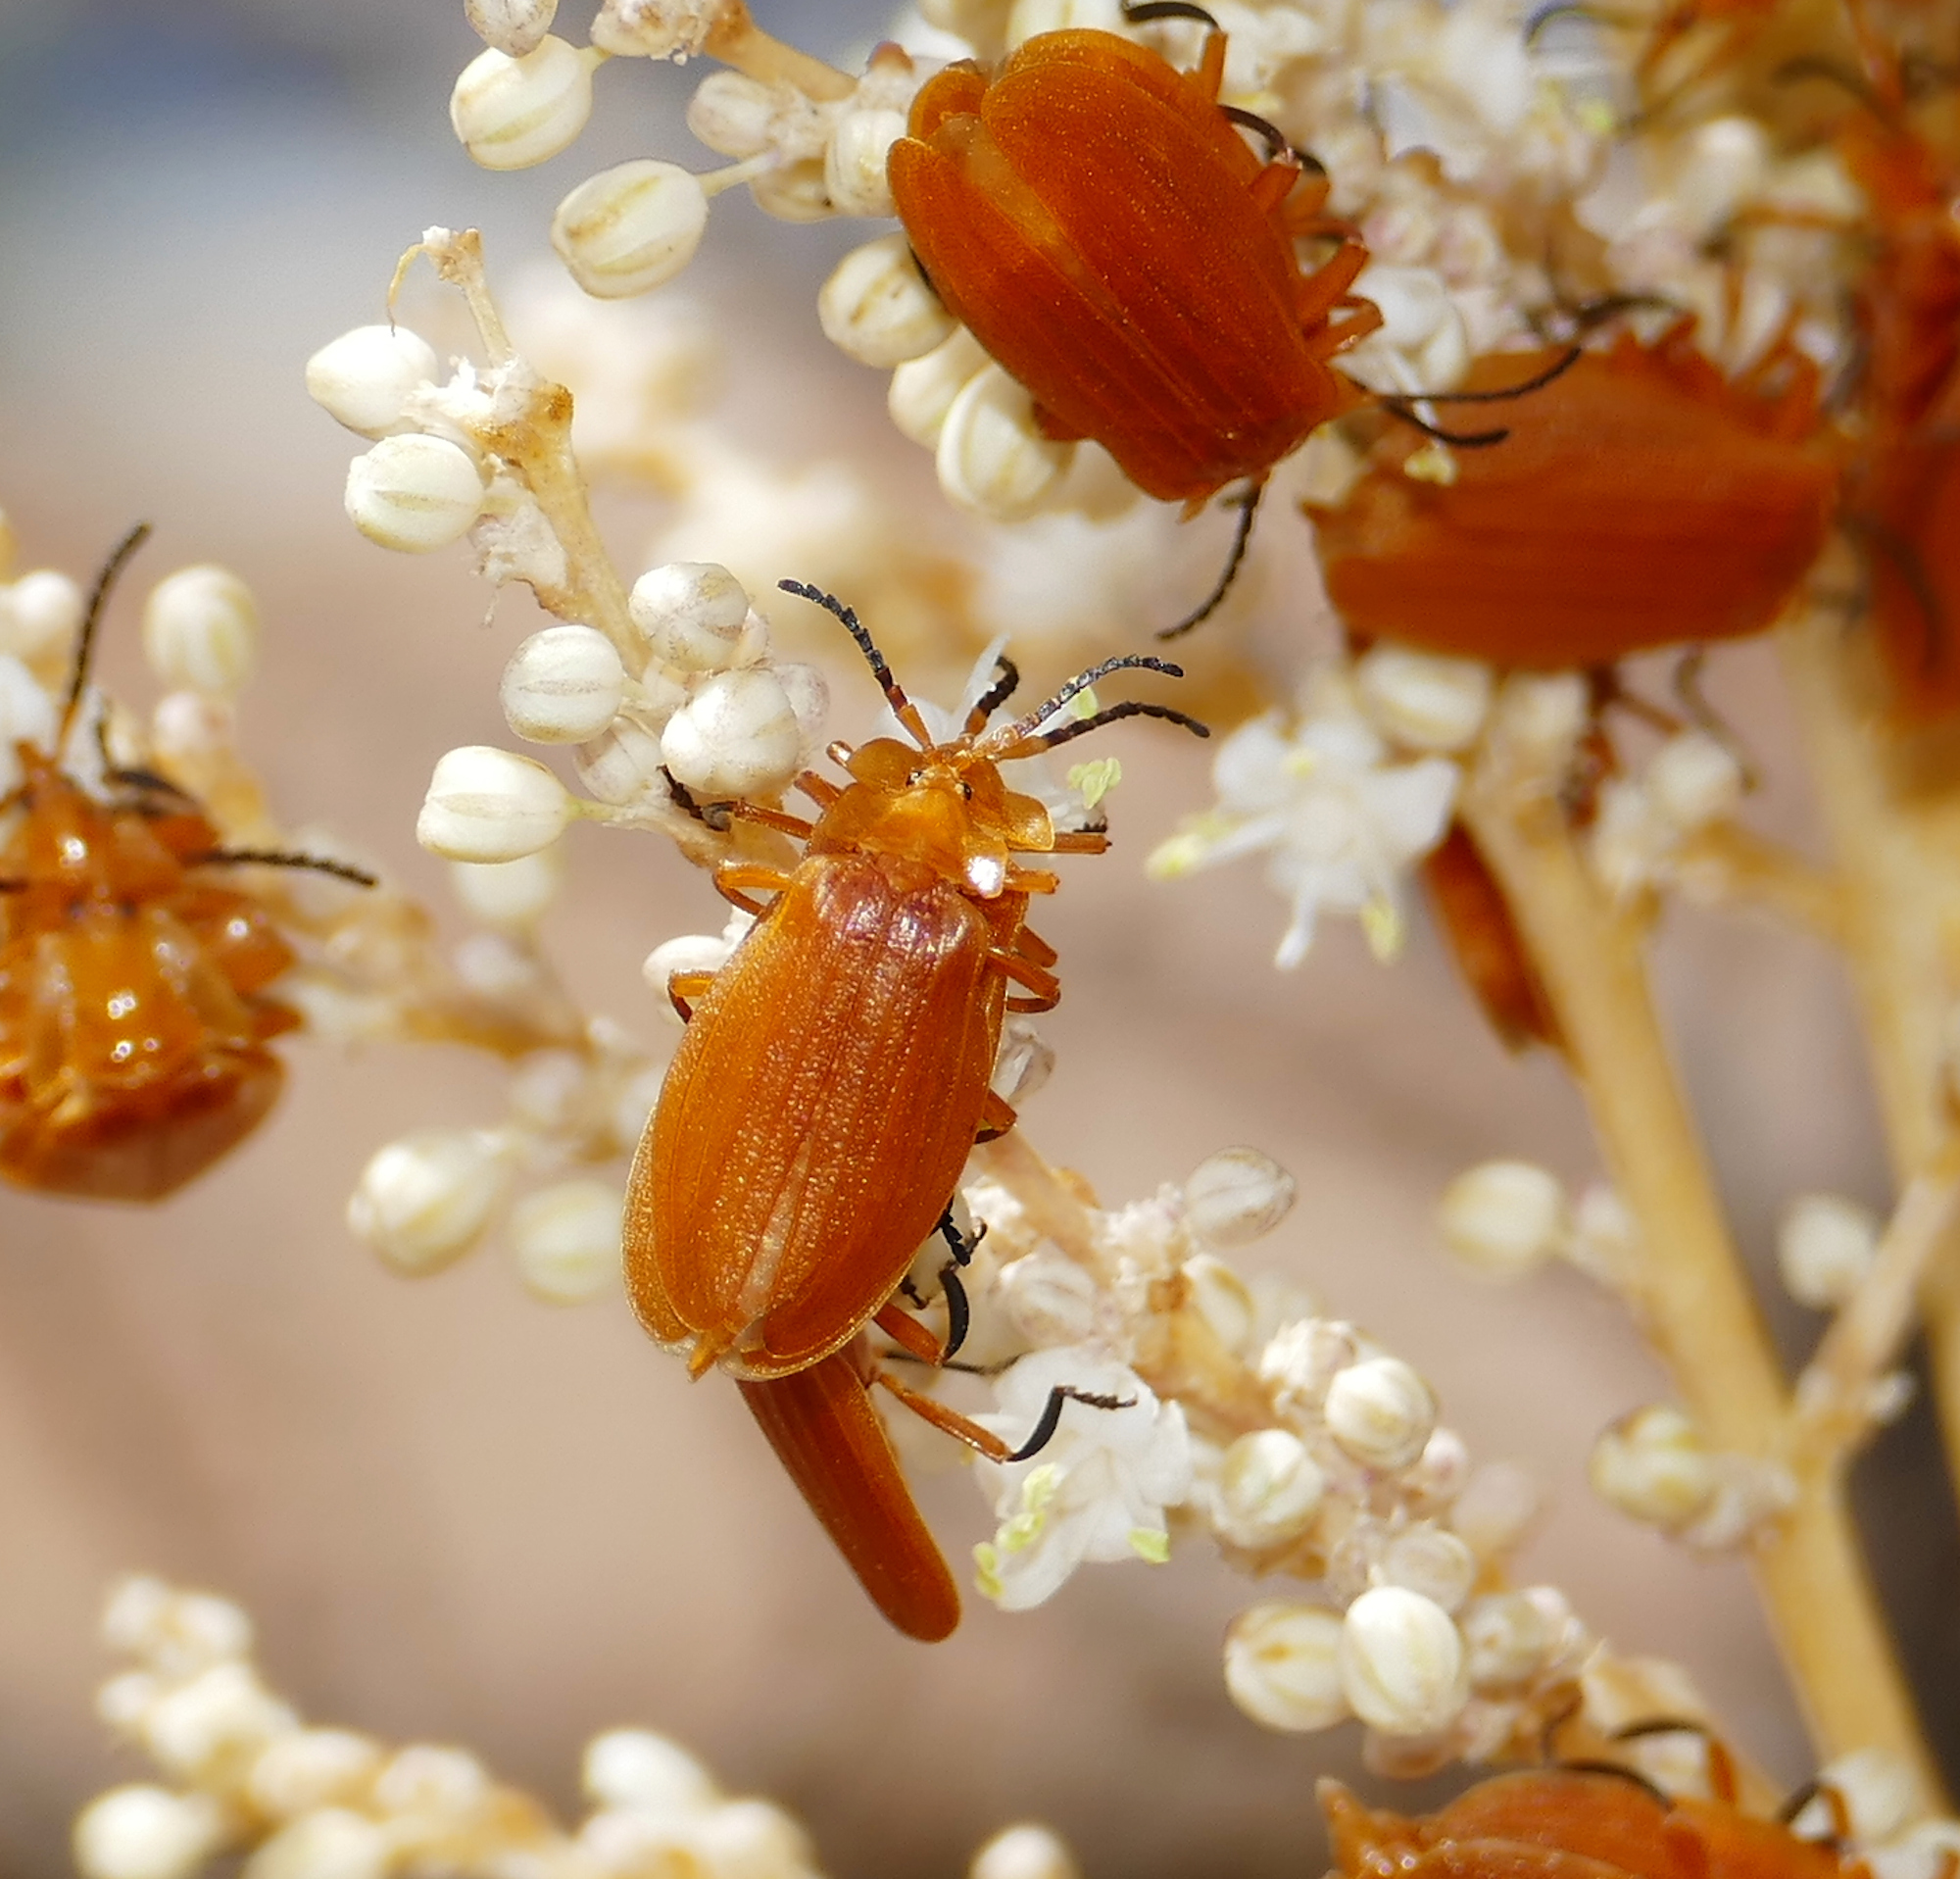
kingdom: Animalia
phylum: Arthropoda
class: Insecta
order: Coleoptera
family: Lycidae
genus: Lycus
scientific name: Lycus loripes
